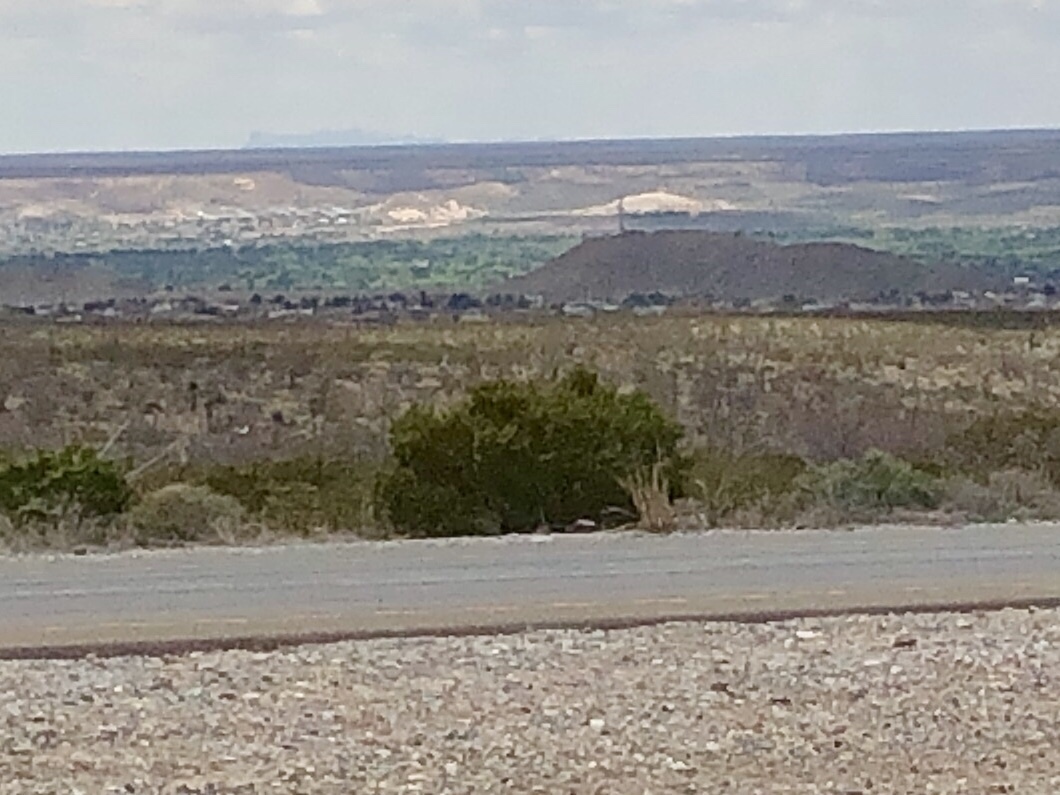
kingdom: Plantae
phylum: Tracheophyta
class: Magnoliopsida
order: Zygophyllales
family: Zygophyllaceae
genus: Larrea
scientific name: Larrea tridentata
